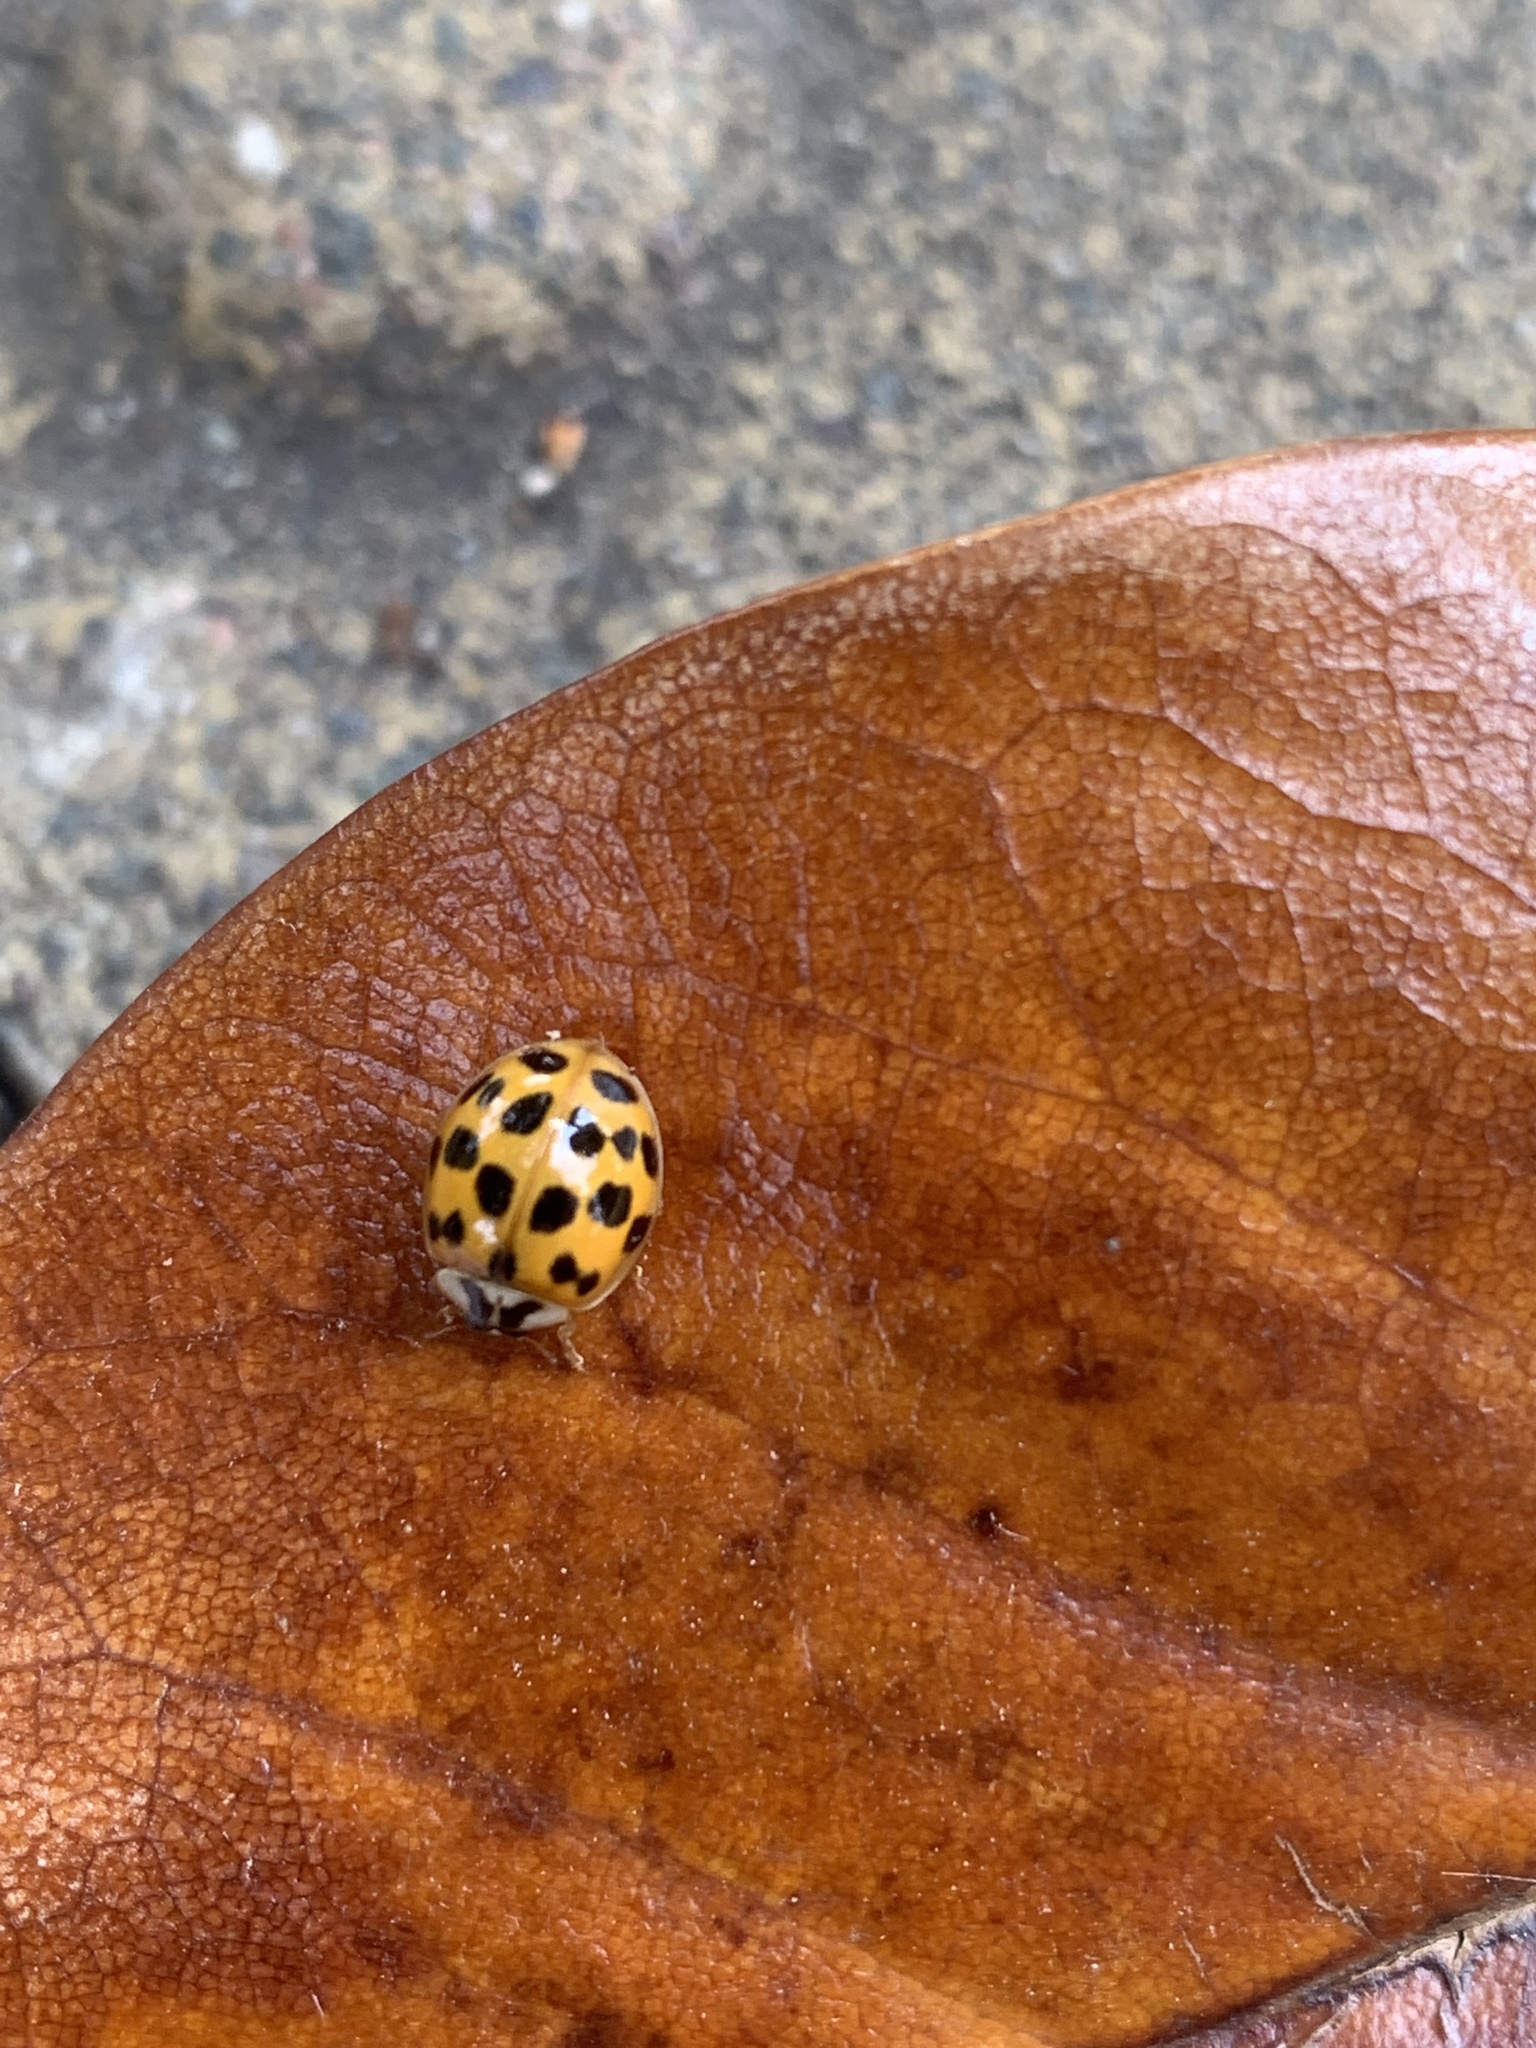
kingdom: Animalia
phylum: Arthropoda
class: Insecta
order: Coleoptera
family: Coccinellidae
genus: Harmonia
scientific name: Harmonia axyridis
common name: Harlequin ladybird
